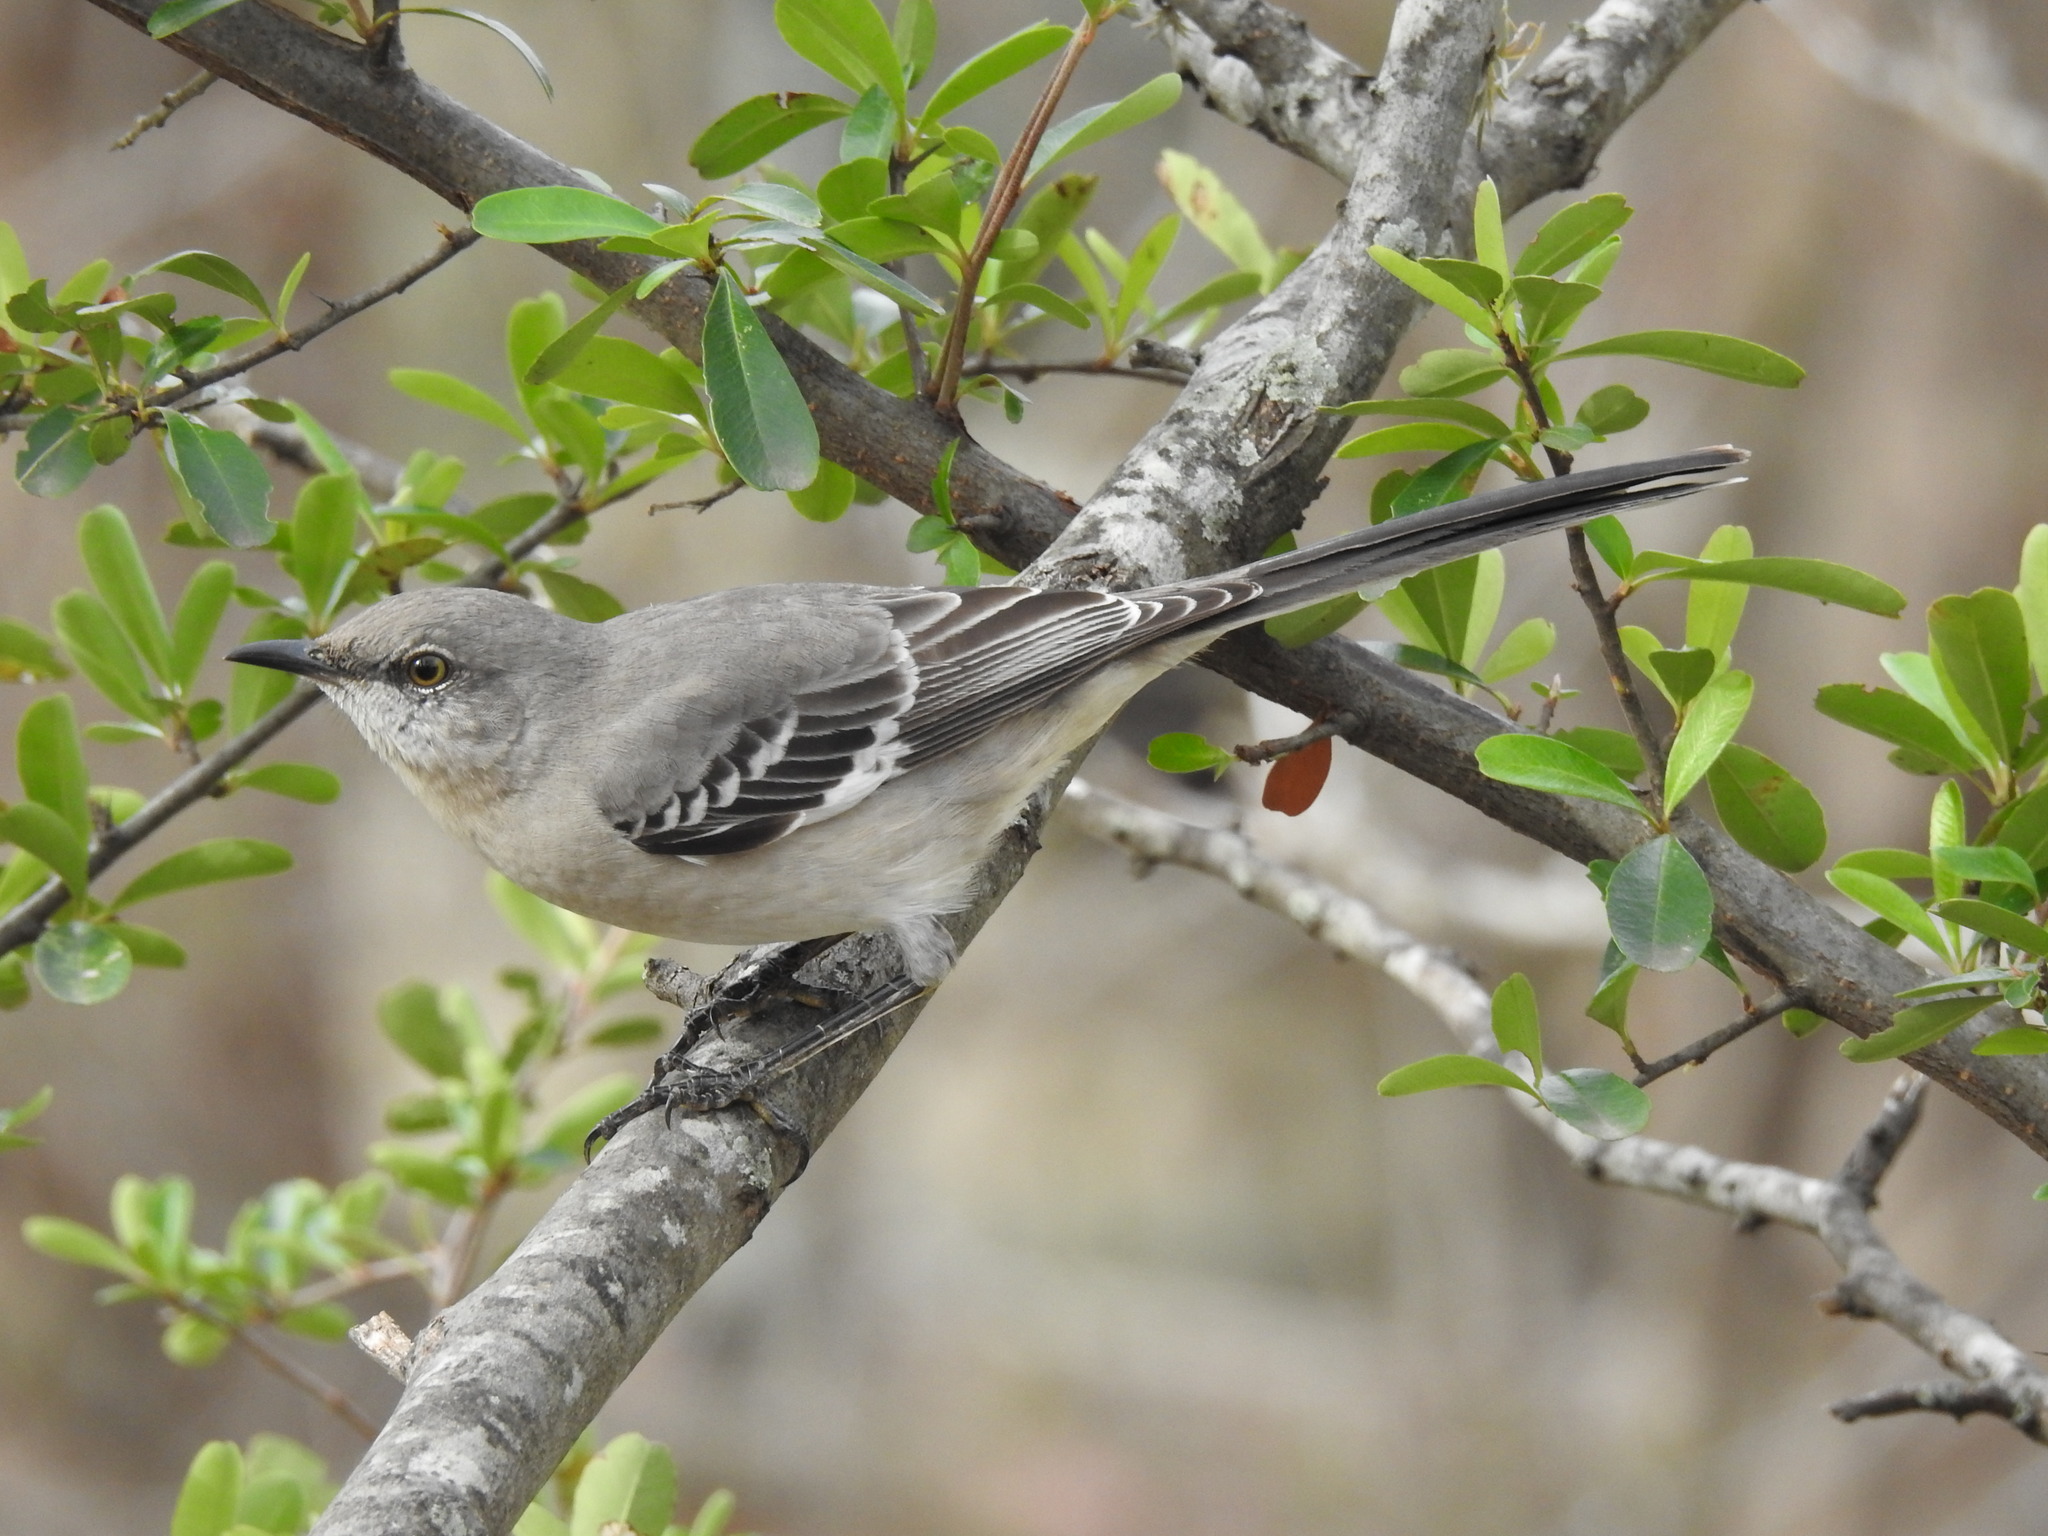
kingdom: Animalia
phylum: Chordata
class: Aves
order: Passeriformes
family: Mimidae
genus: Mimus
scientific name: Mimus polyglottos
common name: Northern mockingbird
